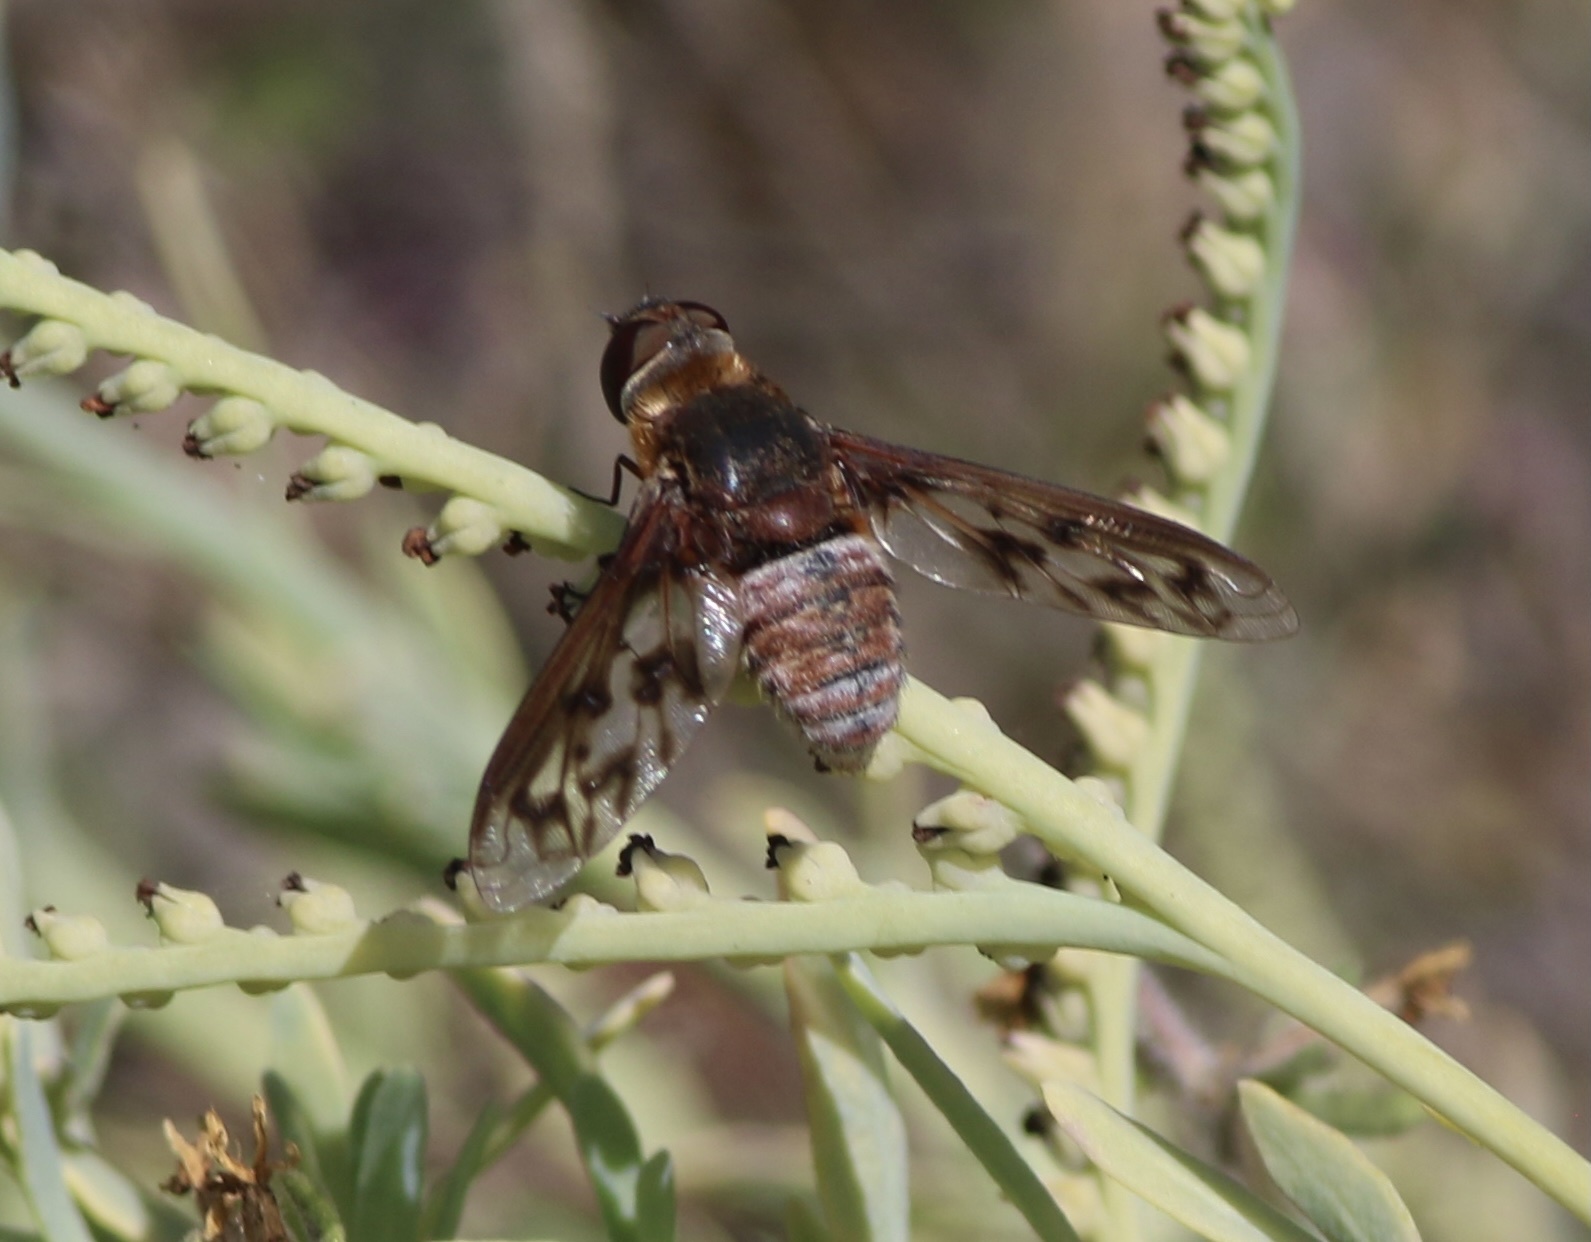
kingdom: Animalia
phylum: Arthropoda
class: Insecta
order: Diptera
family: Bombyliidae
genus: Nyia
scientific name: Nyia gazophylax
